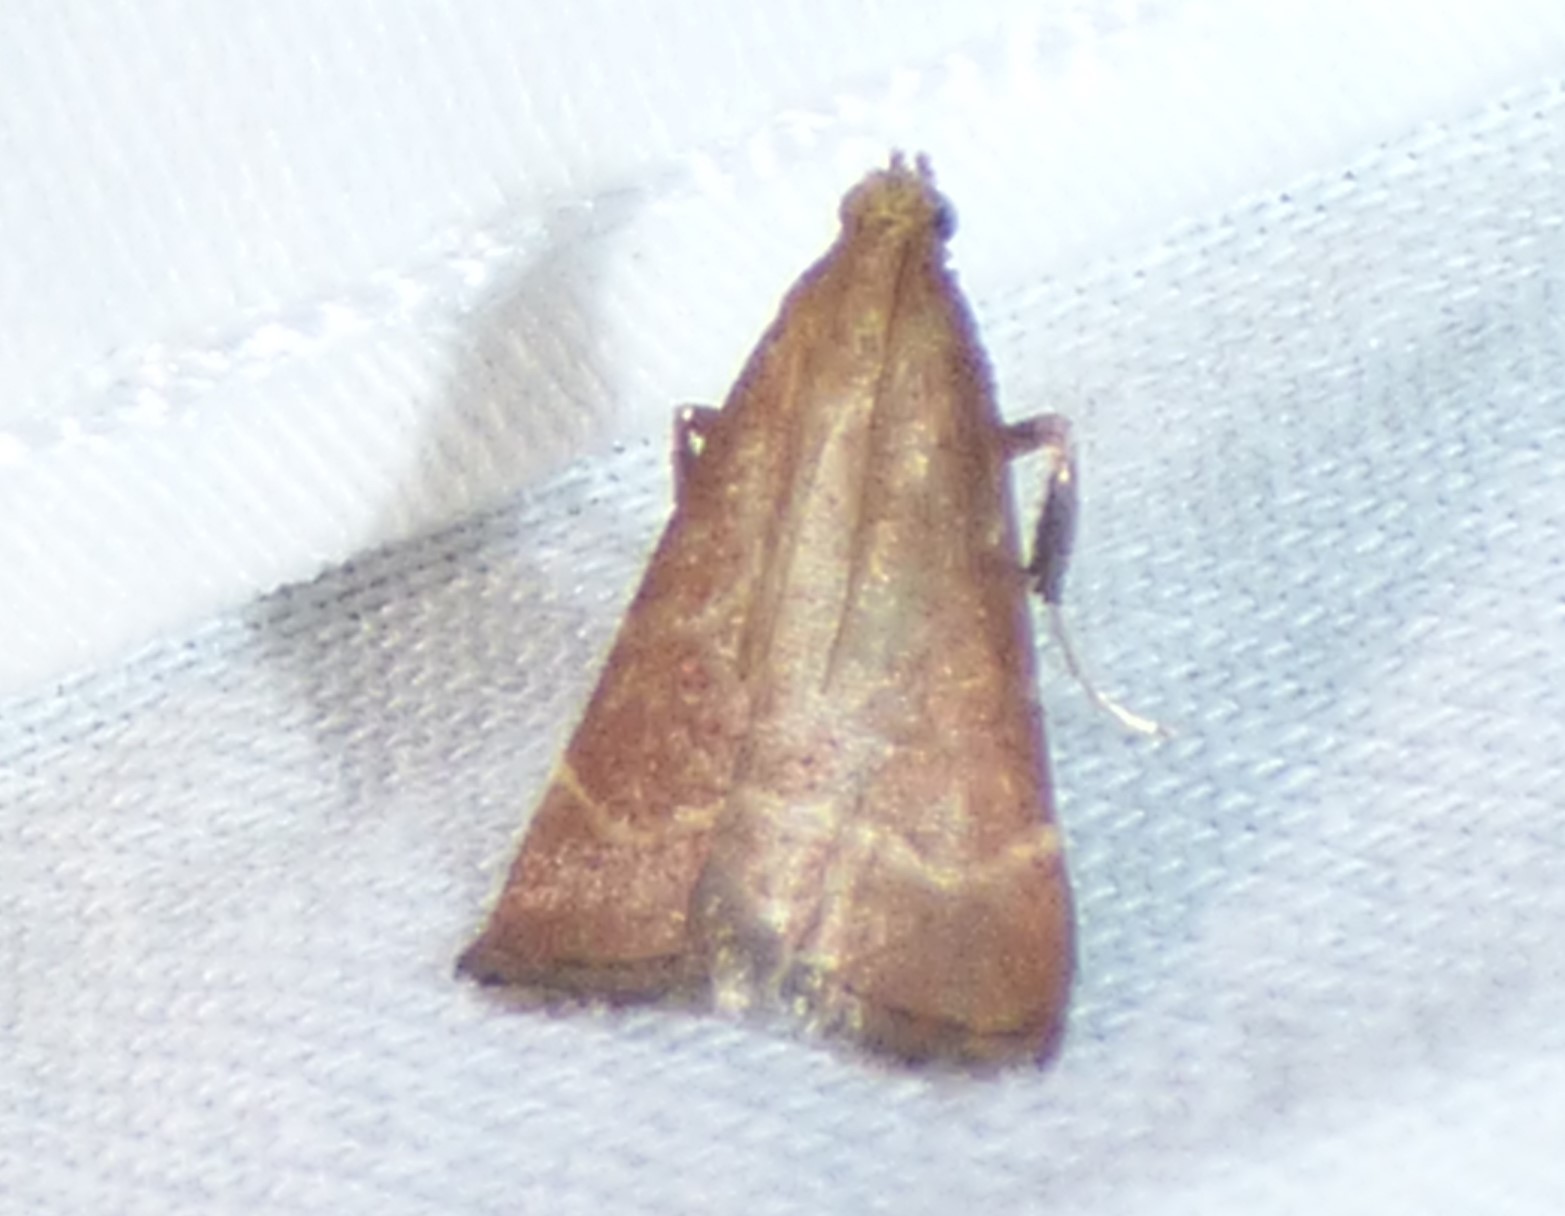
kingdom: Animalia
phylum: Arthropoda
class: Insecta
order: Lepidoptera
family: Pyralidae
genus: Arta
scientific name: Arta statalis
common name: Posturing arta moth
